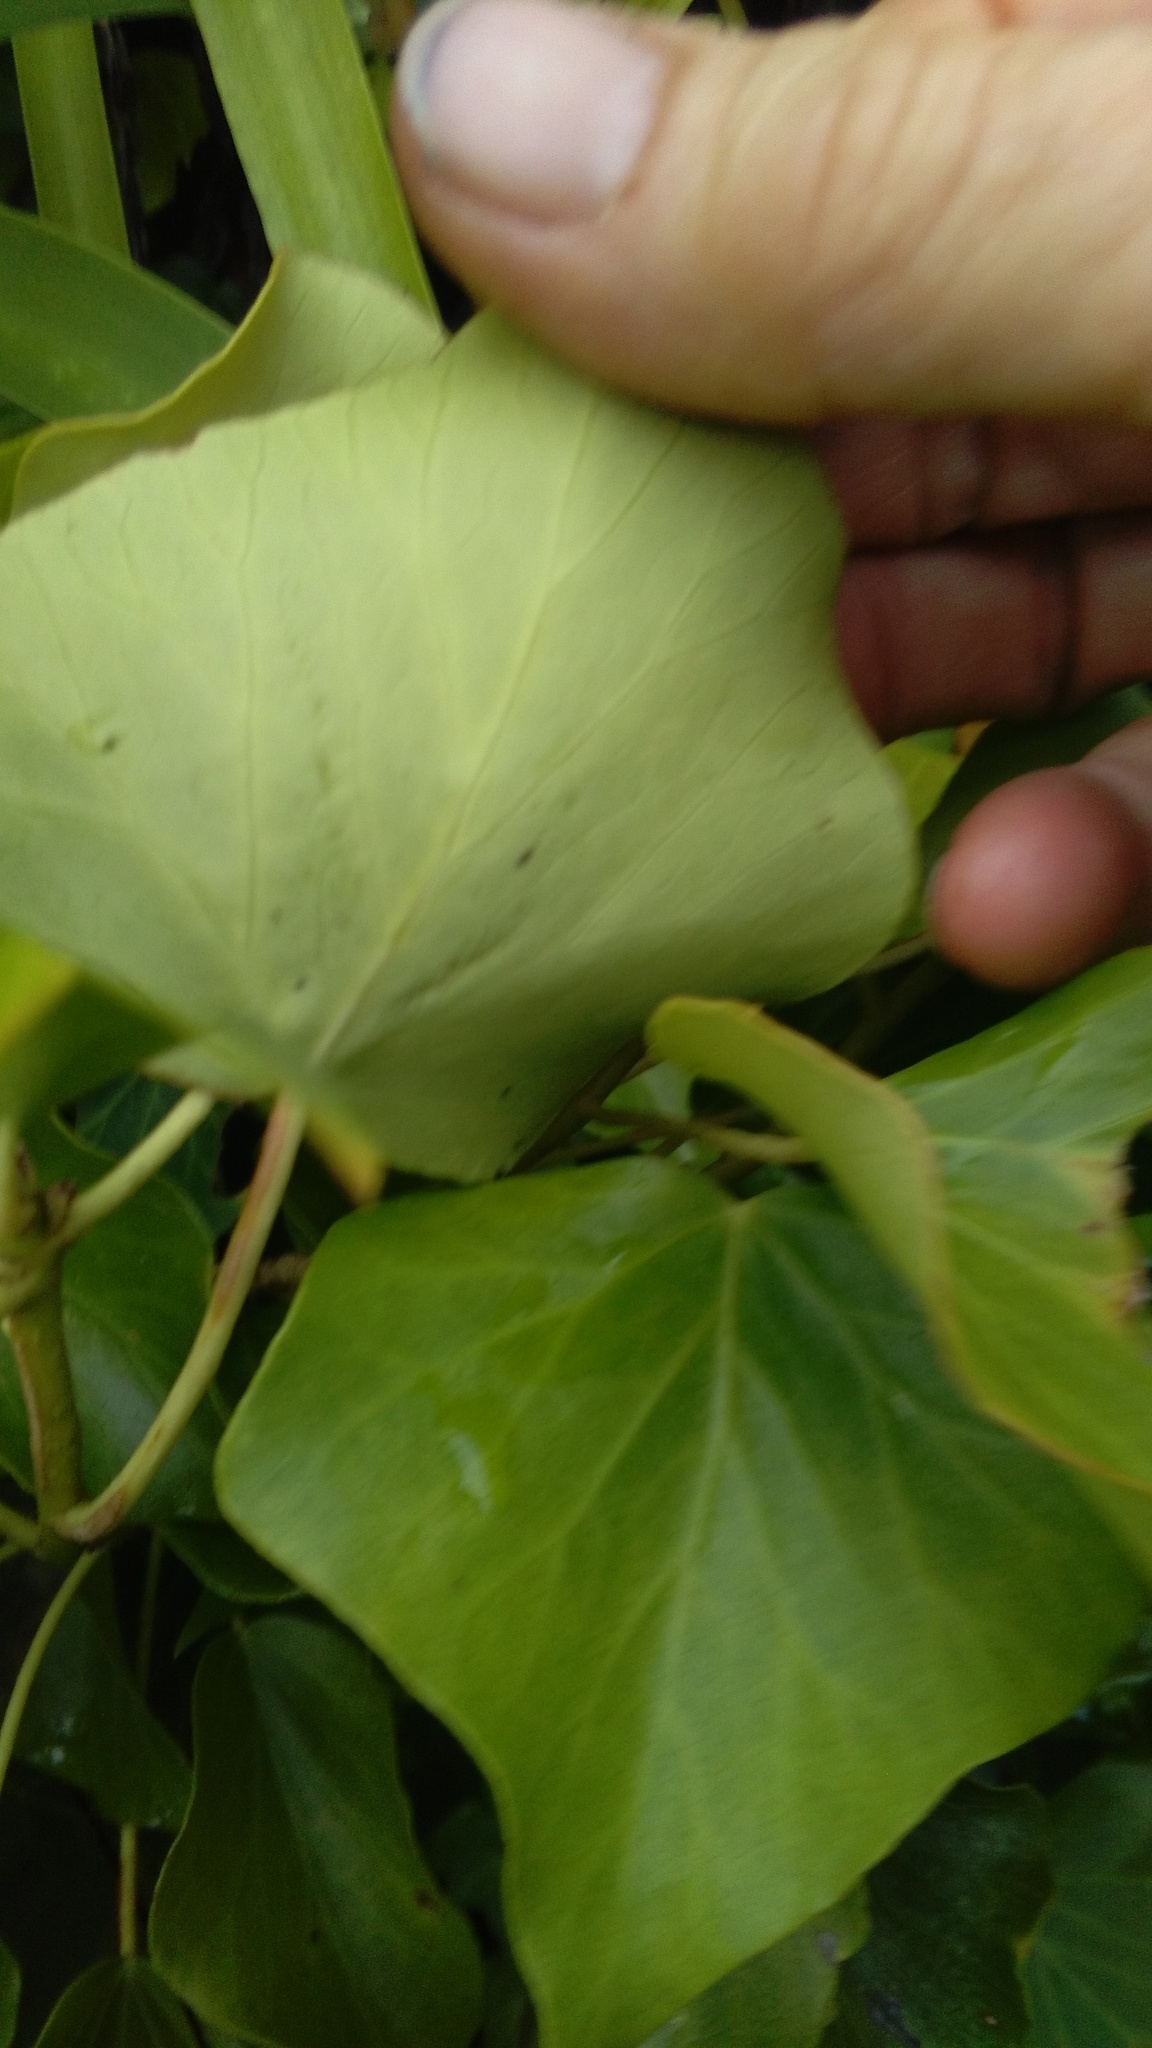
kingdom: Plantae
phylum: Tracheophyta
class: Magnoliopsida
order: Apiales
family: Araliaceae
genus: Hedera
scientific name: Hedera helix
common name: Ivy
